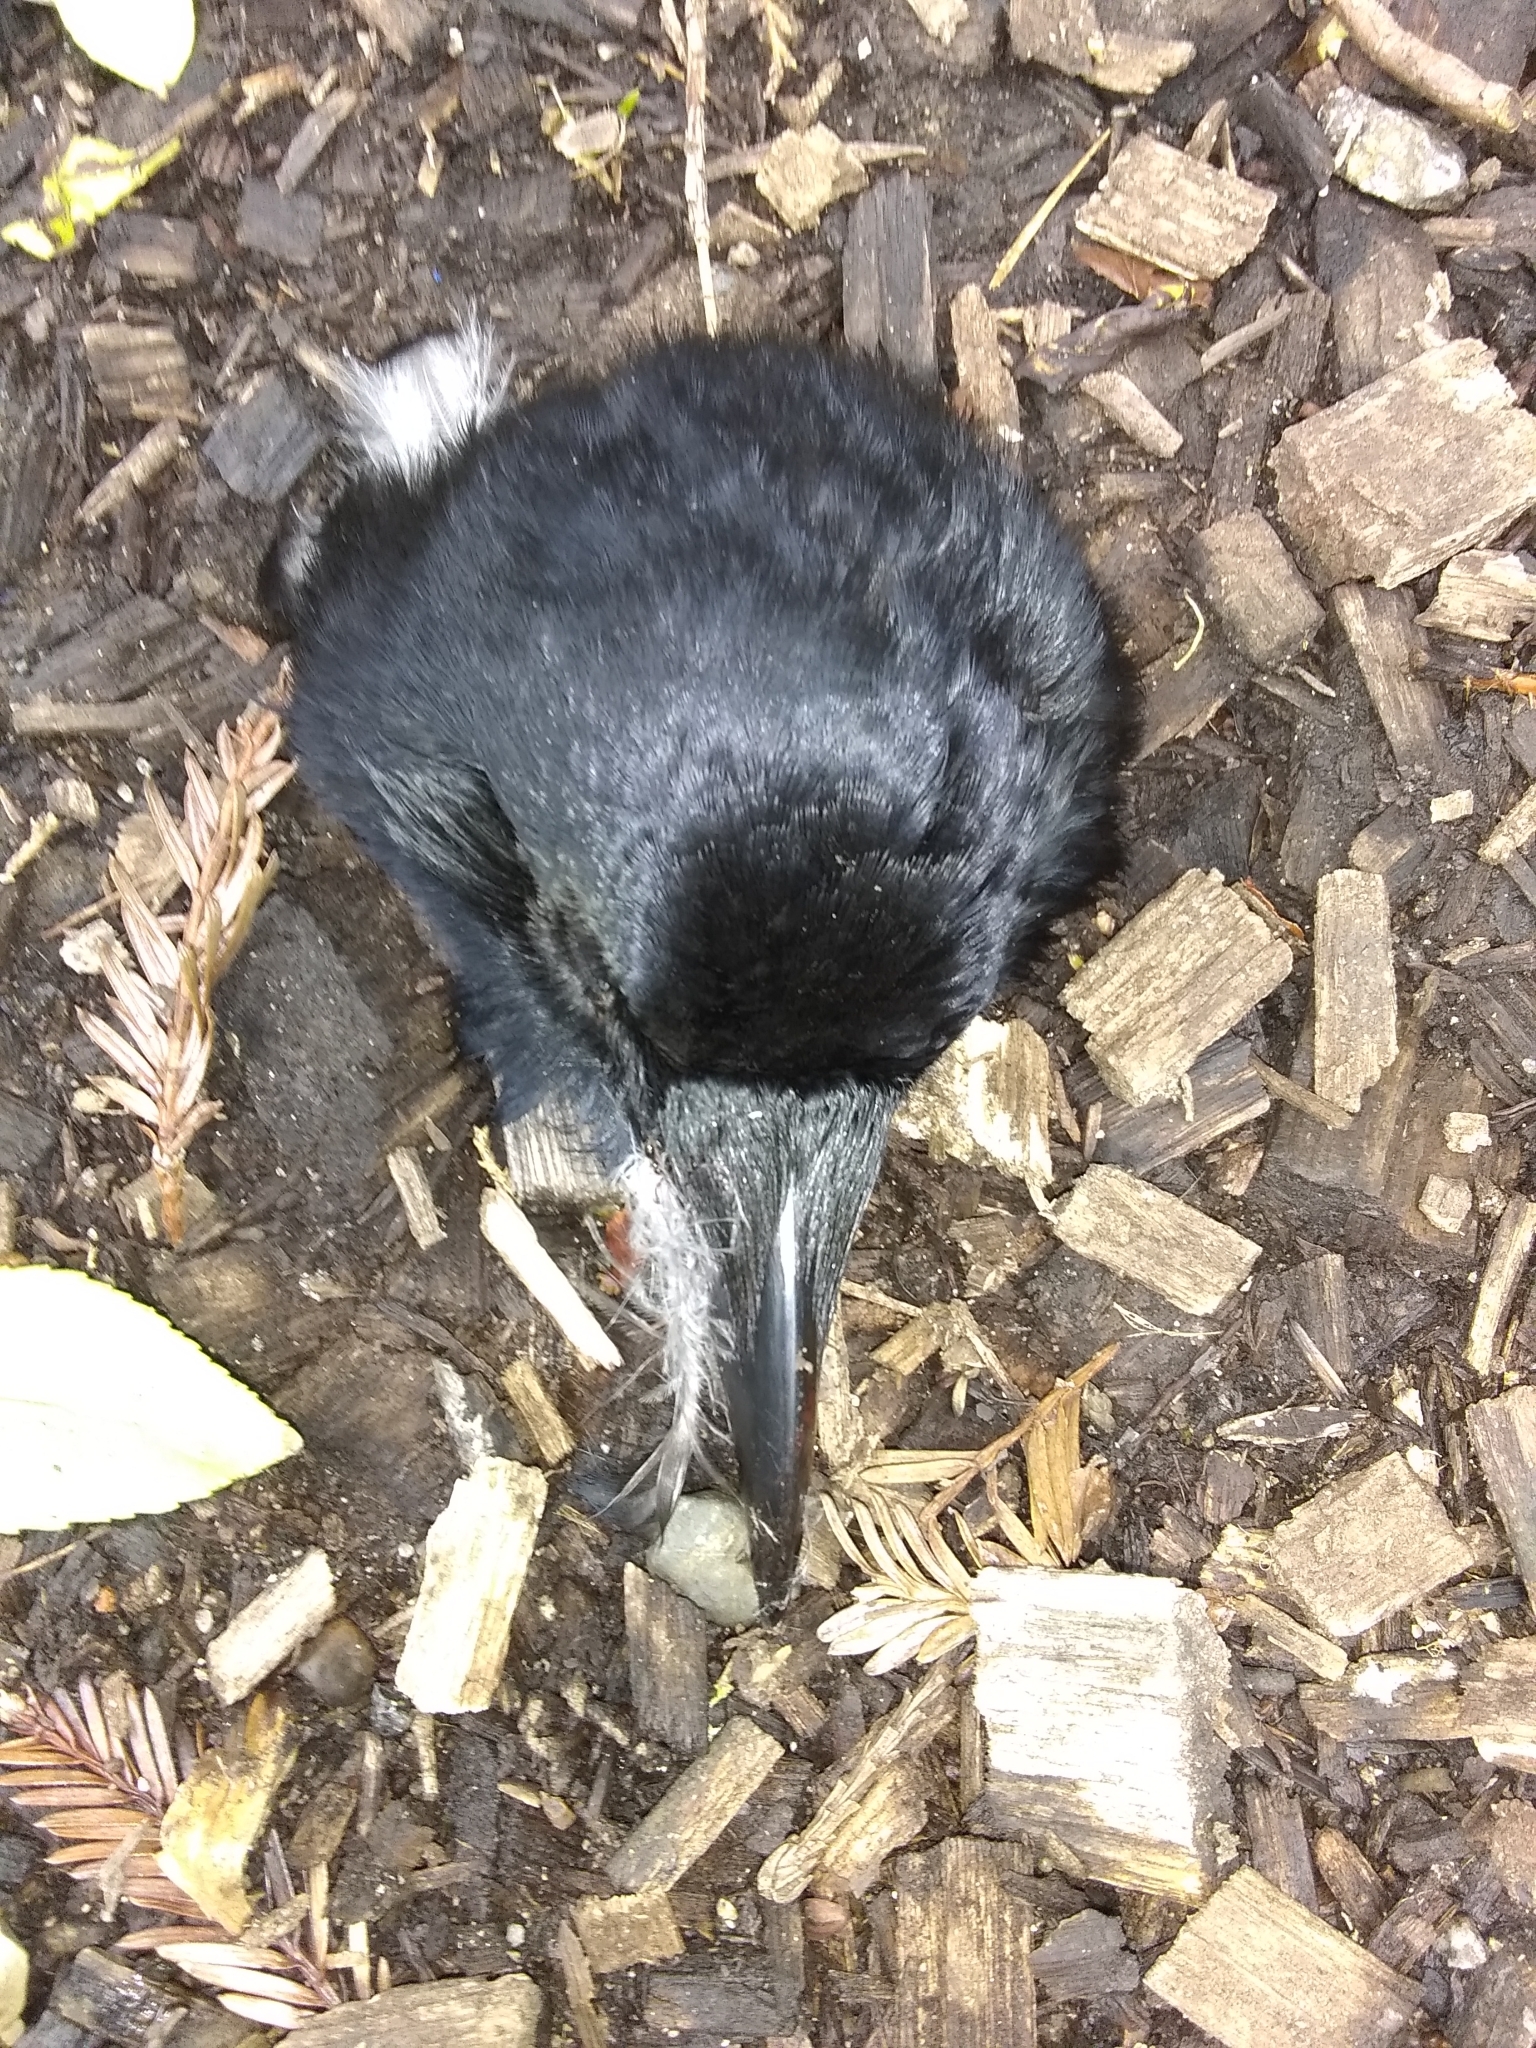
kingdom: Animalia
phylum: Chordata
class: Aves
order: Passeriformes
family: Corvidae
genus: Corvus
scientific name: Corvus brachyrhynchos
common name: American crow
